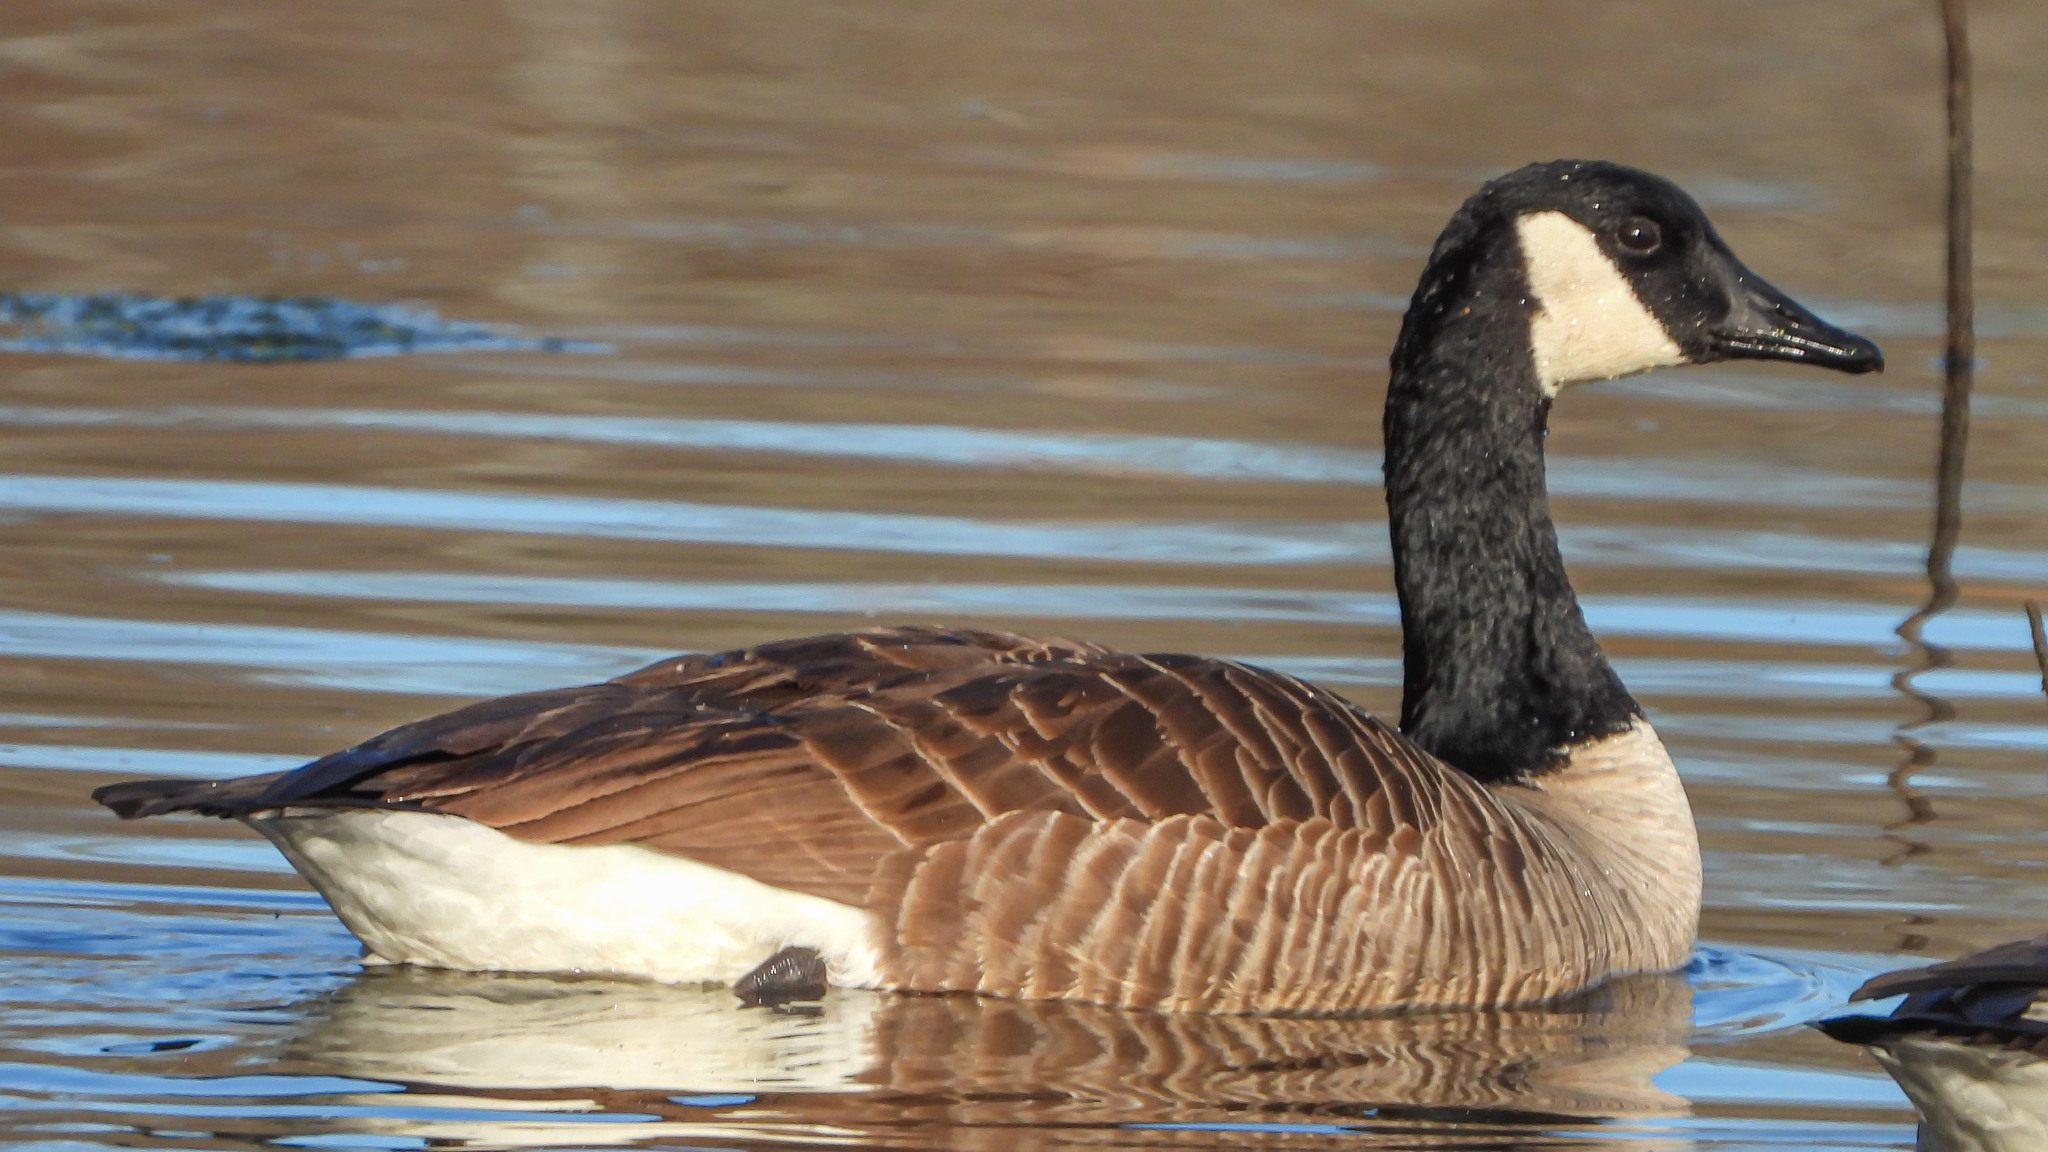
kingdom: Animalia
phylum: Chordata
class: Aves
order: Anseriformes
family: Anatidae
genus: Branta
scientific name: Branta canadensis
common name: Canada goose
